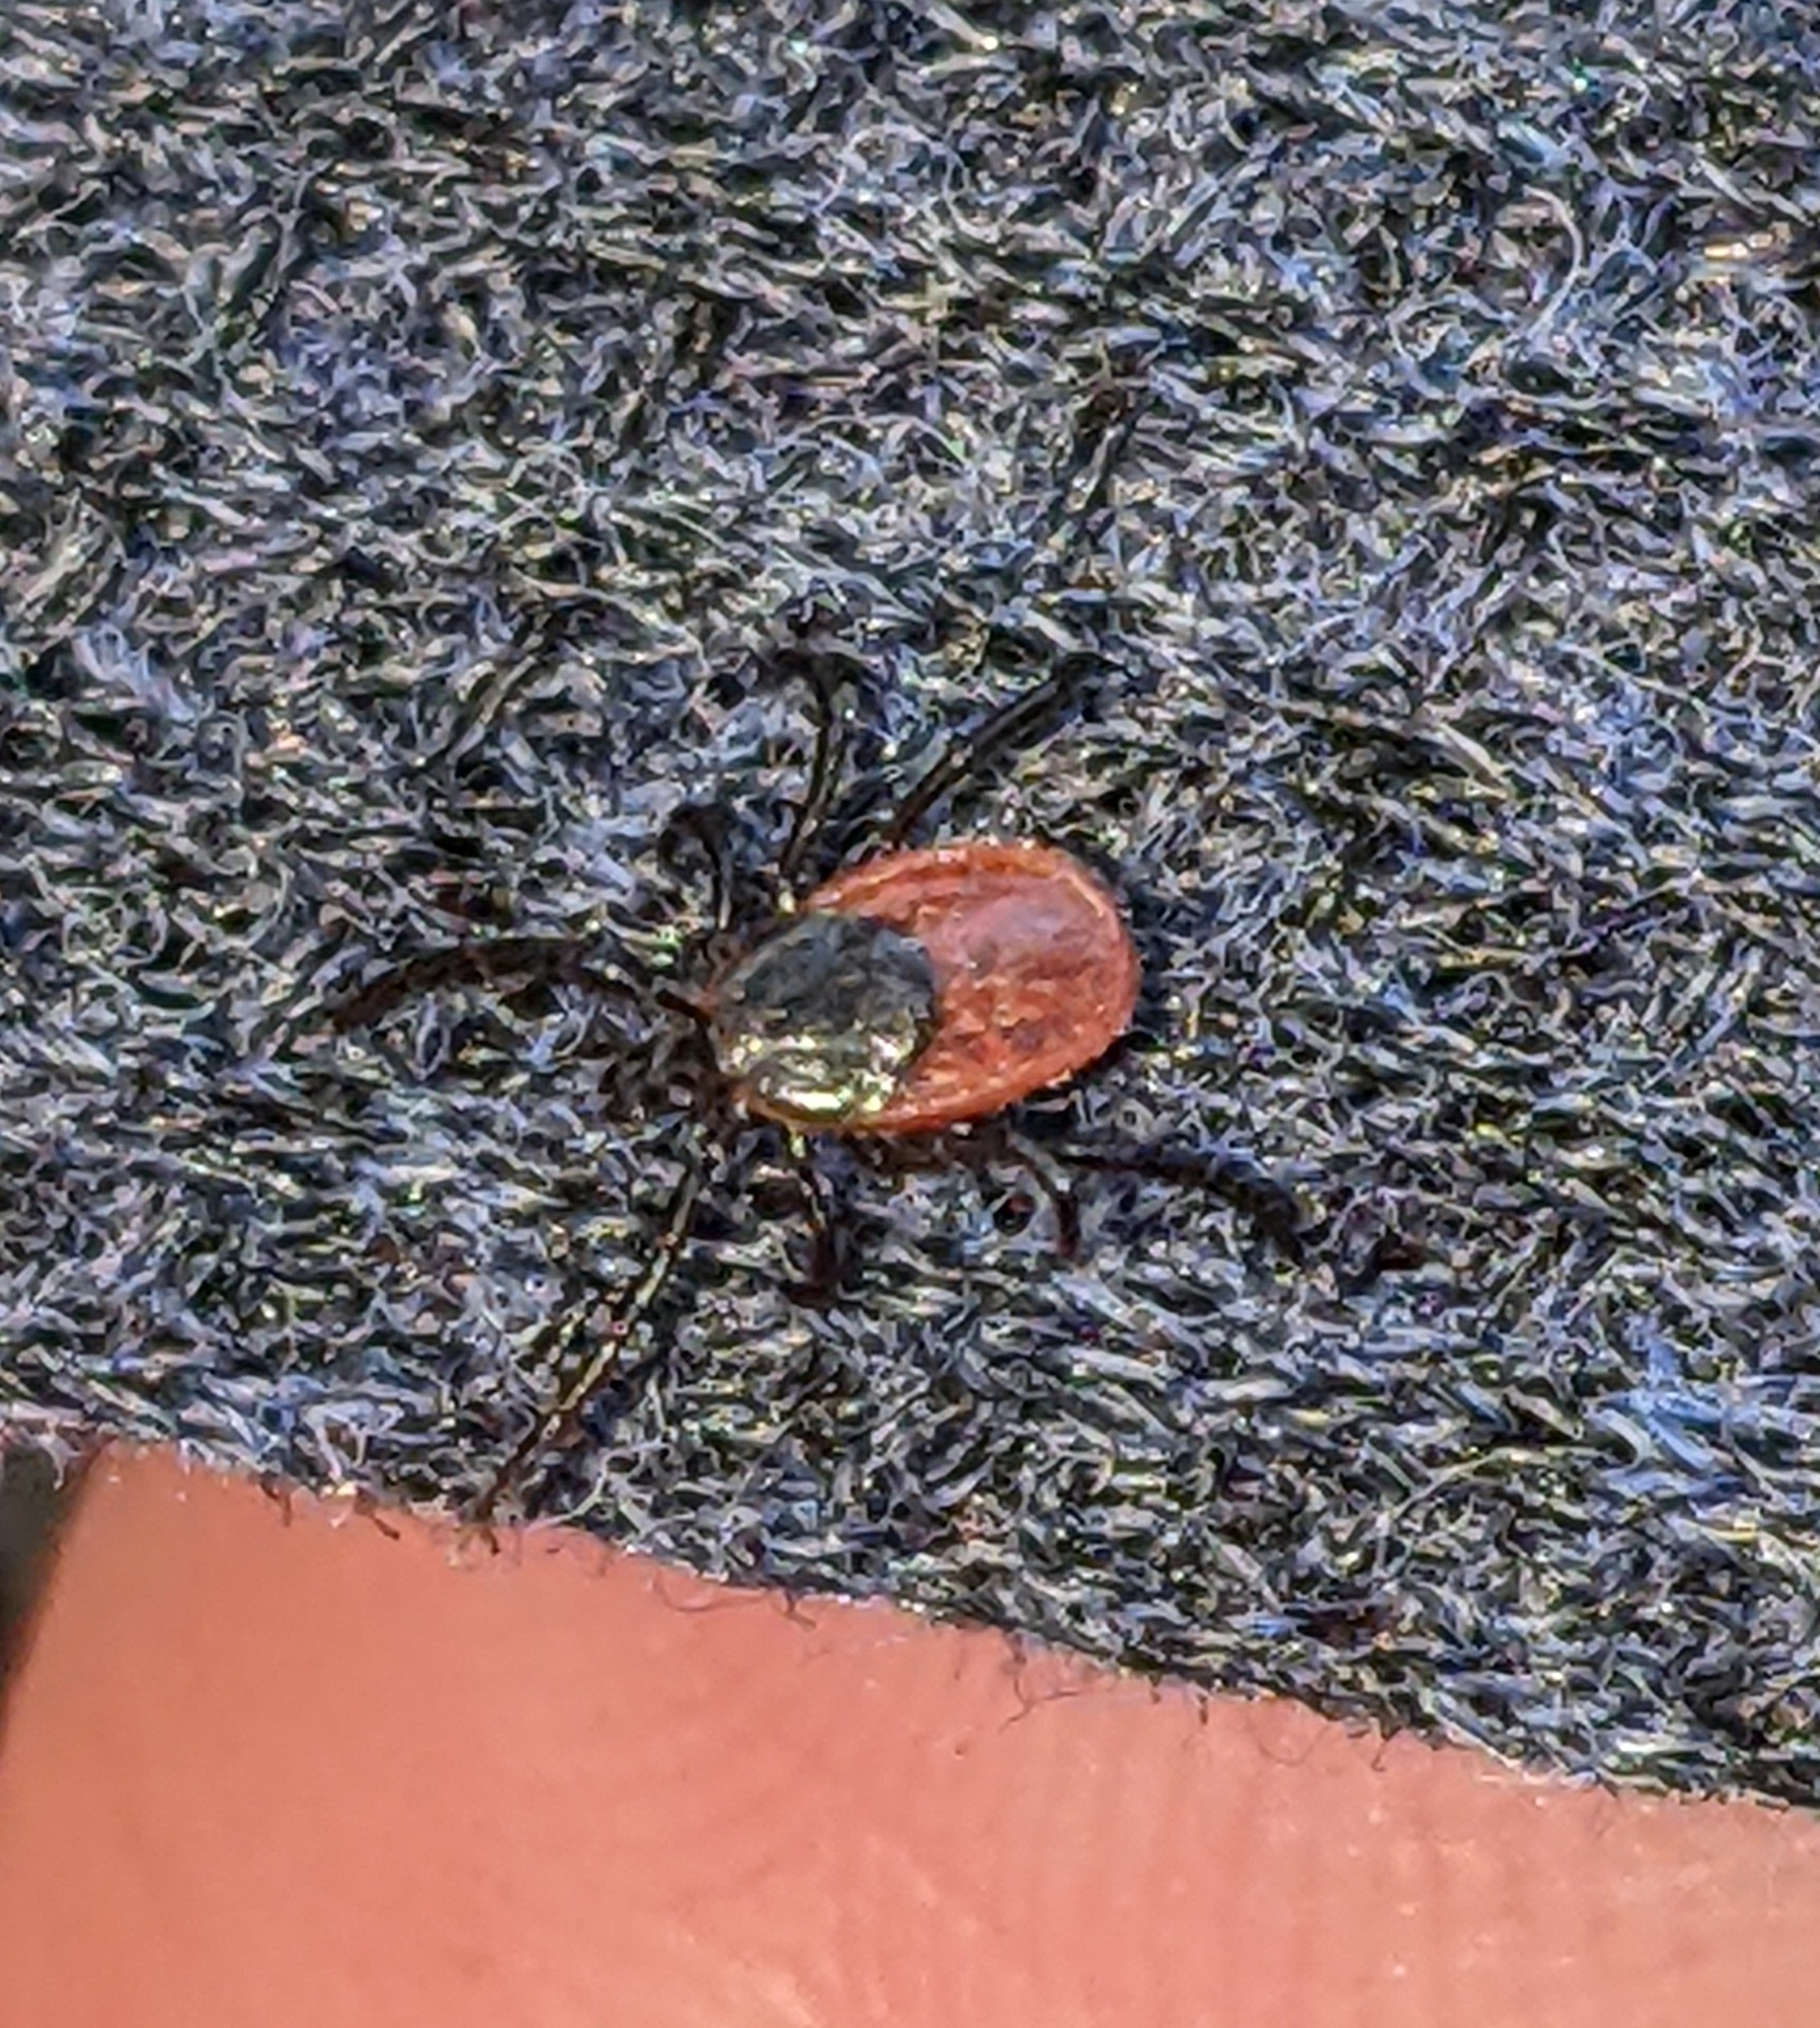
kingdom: Animalia
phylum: Arthropoda
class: Arachnida
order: Ixodida
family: Ixodidae
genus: Ixodes
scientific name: Ixodes pacificus
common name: California black-legged tick
